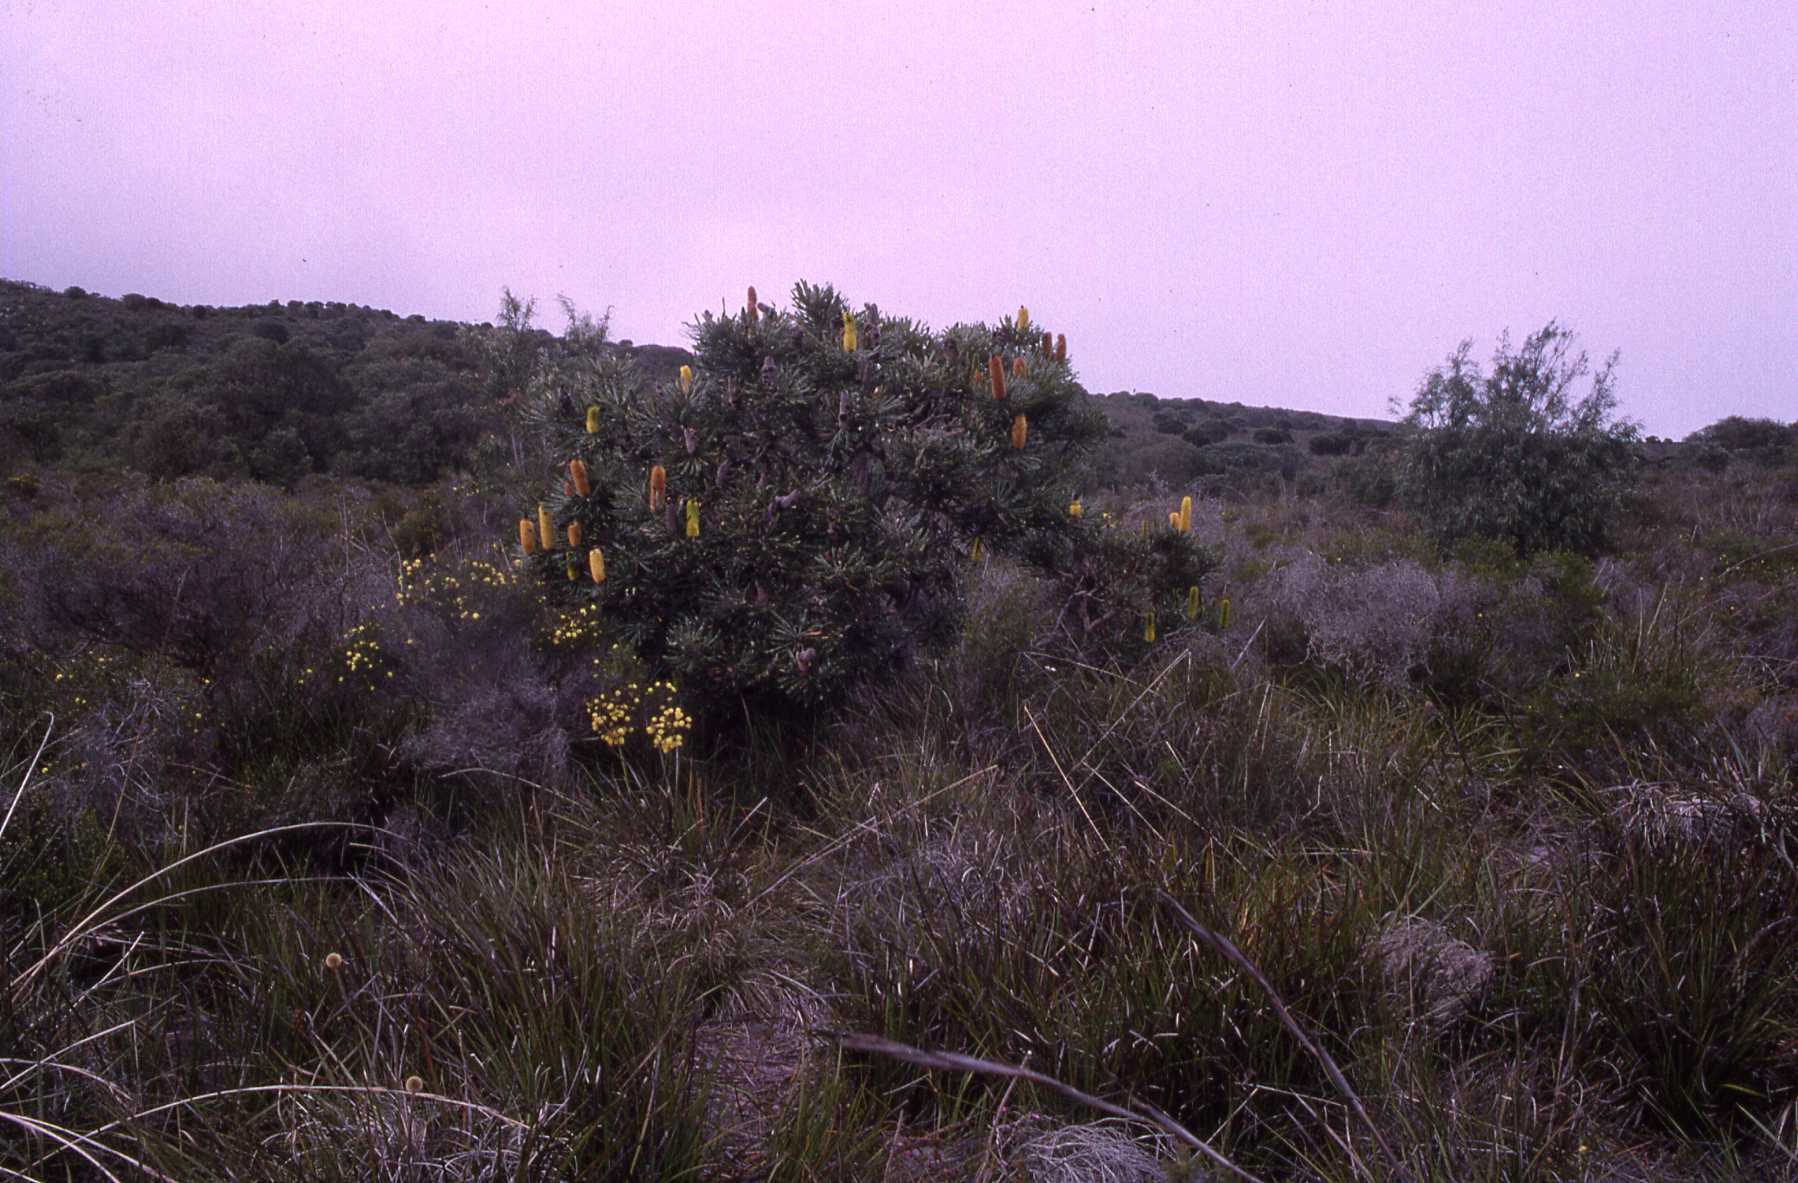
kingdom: Plantae
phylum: Tracheophyta
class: Magnoliopsida
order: Proteales
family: Proteaceae
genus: Banksia
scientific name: Banksia attenuata
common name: Coast banksia
